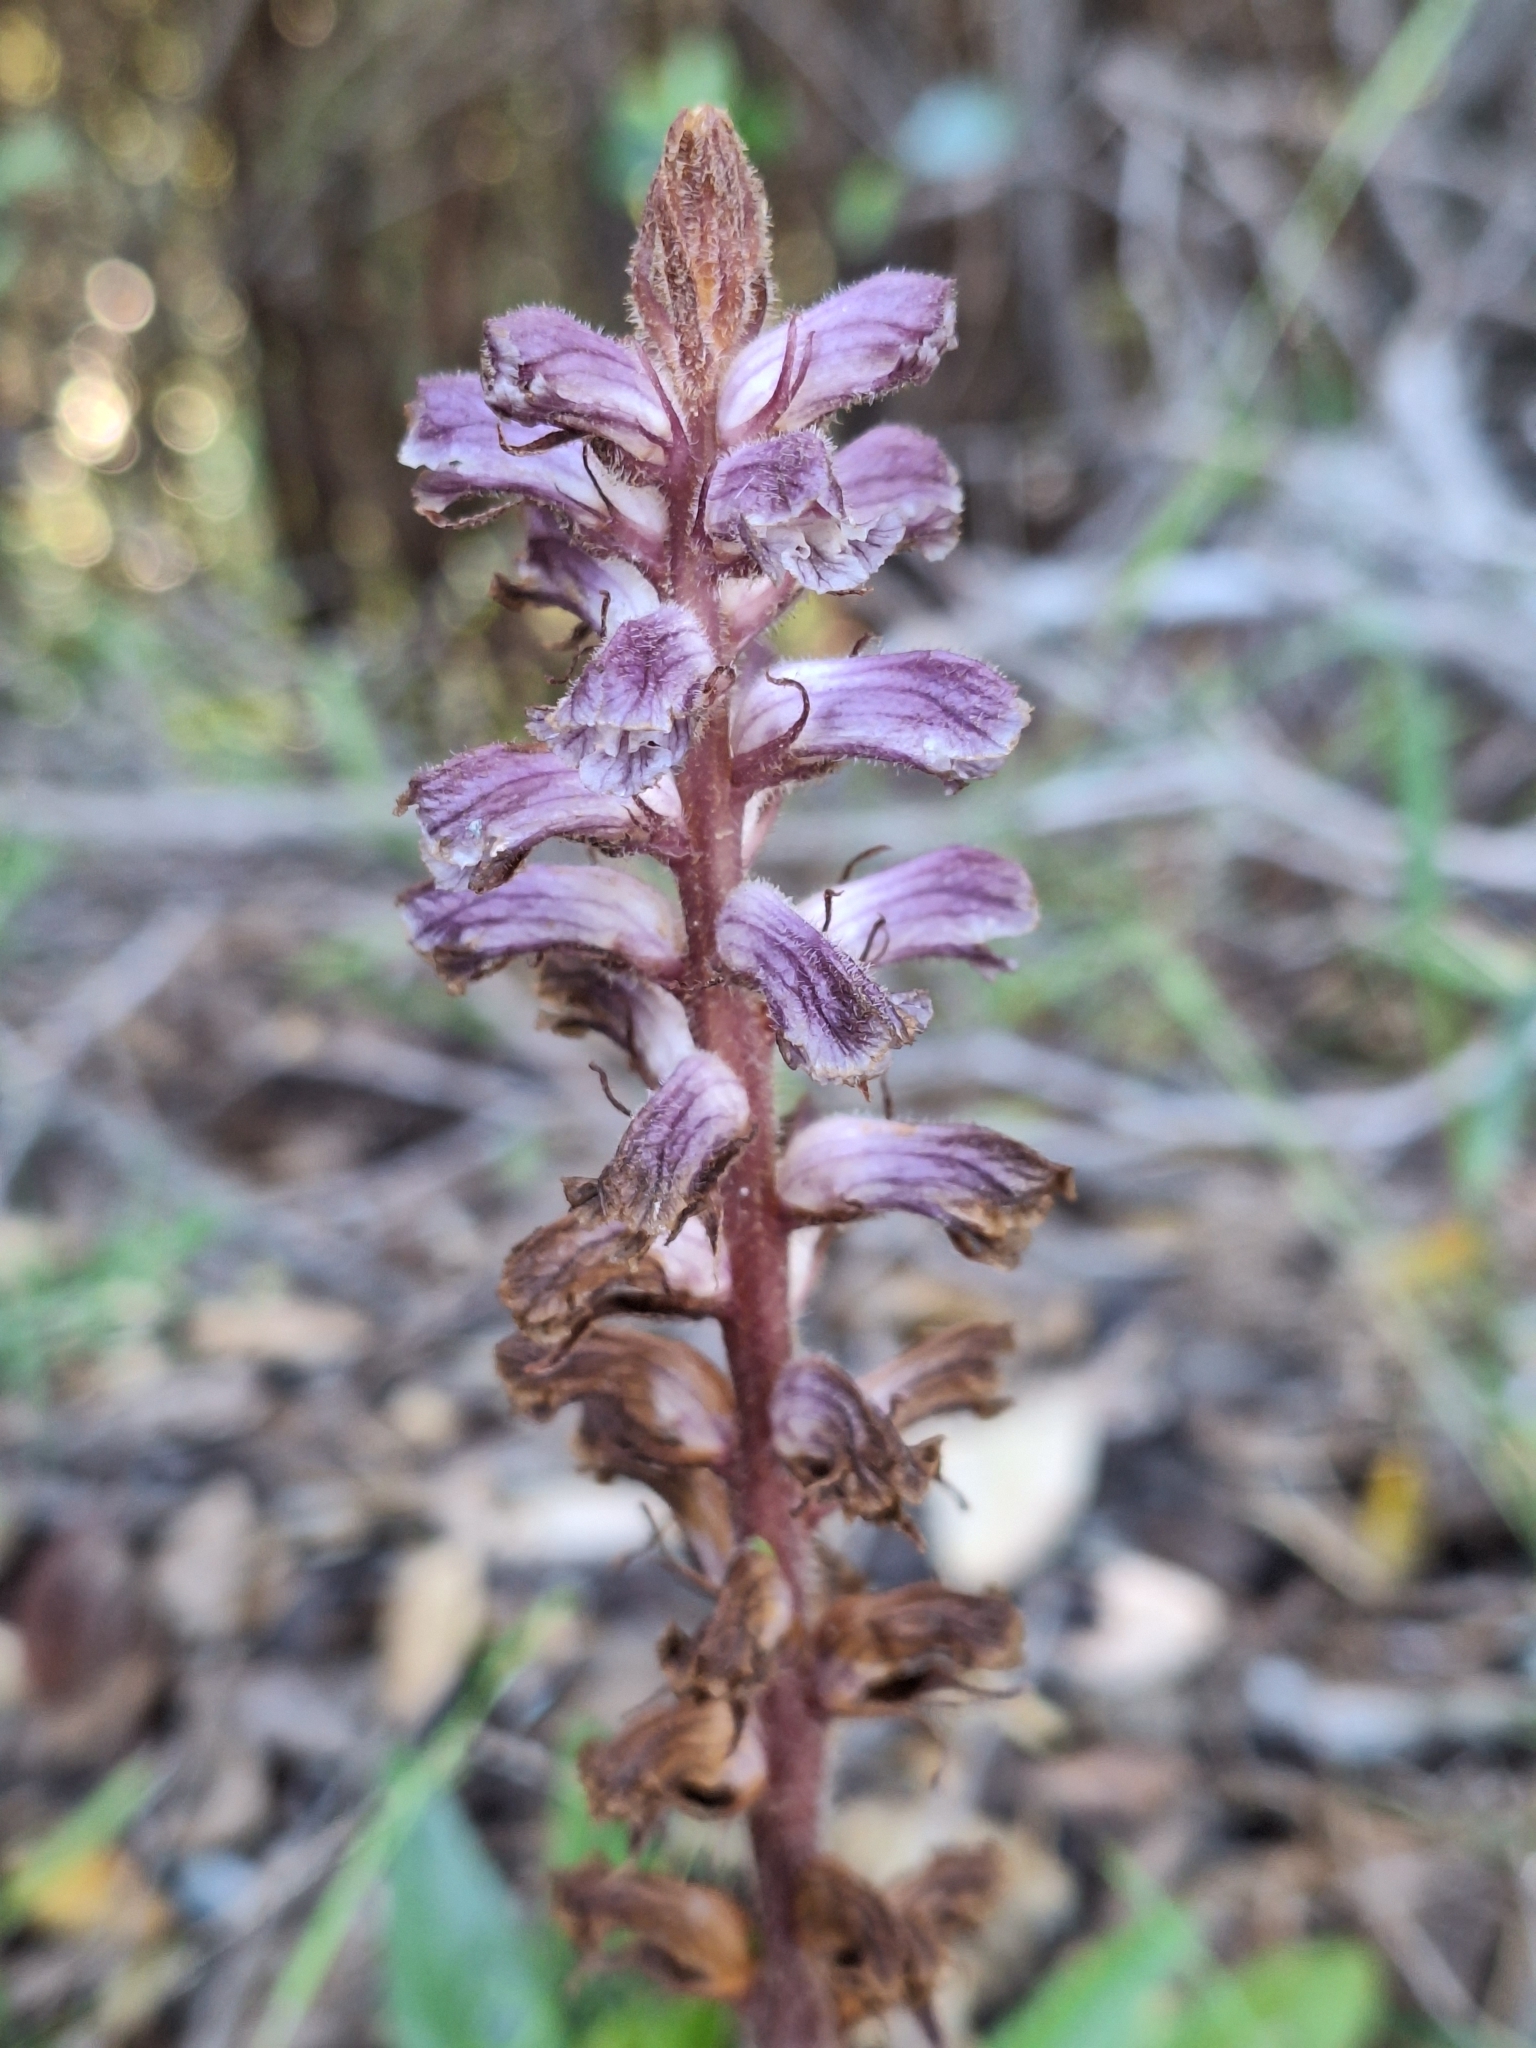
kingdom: Plantae
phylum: Tracheophyta
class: Magnoliopsida
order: Lamiales
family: Orobanchaceae
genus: Orobanche
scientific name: Orobanche minor
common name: Common broomrape
